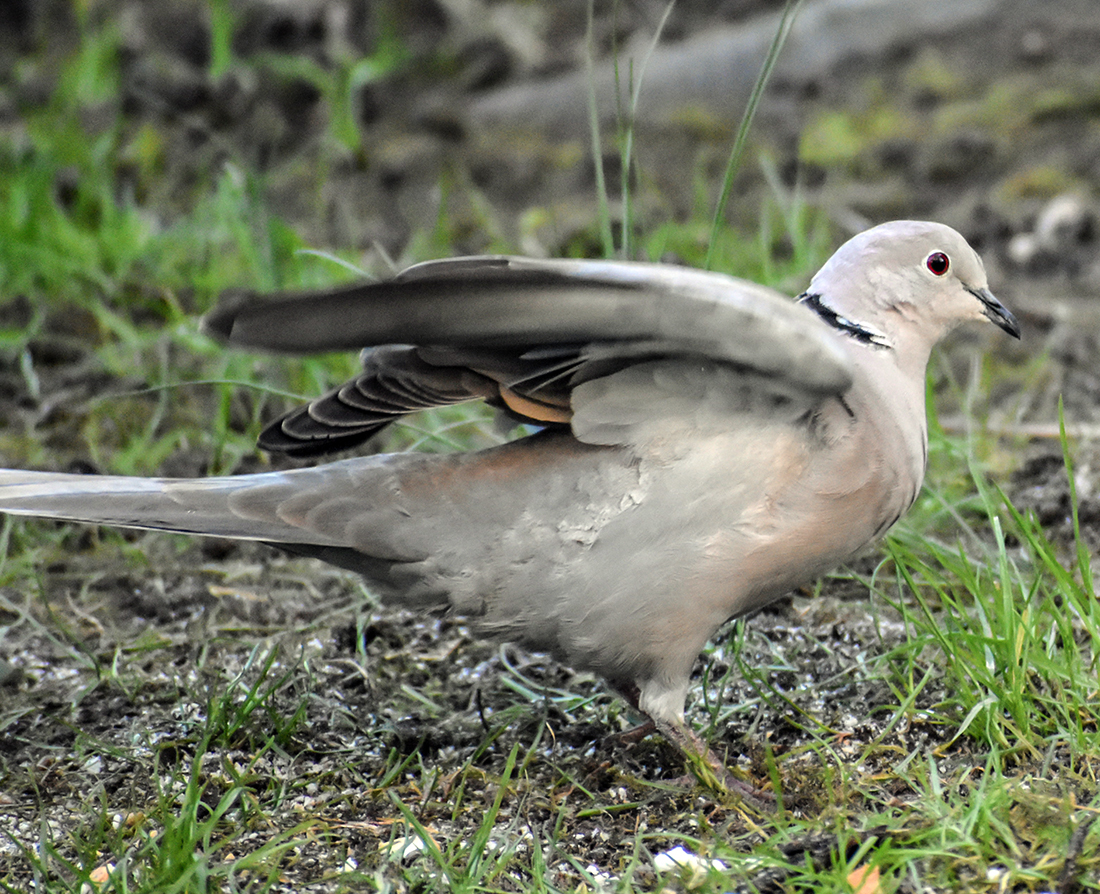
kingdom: Animalia
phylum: Chordata
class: Aves
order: Columbiformes
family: Columbidae
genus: Streptopelia
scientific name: Streptopelia decaocto
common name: Eurasian collared dove
